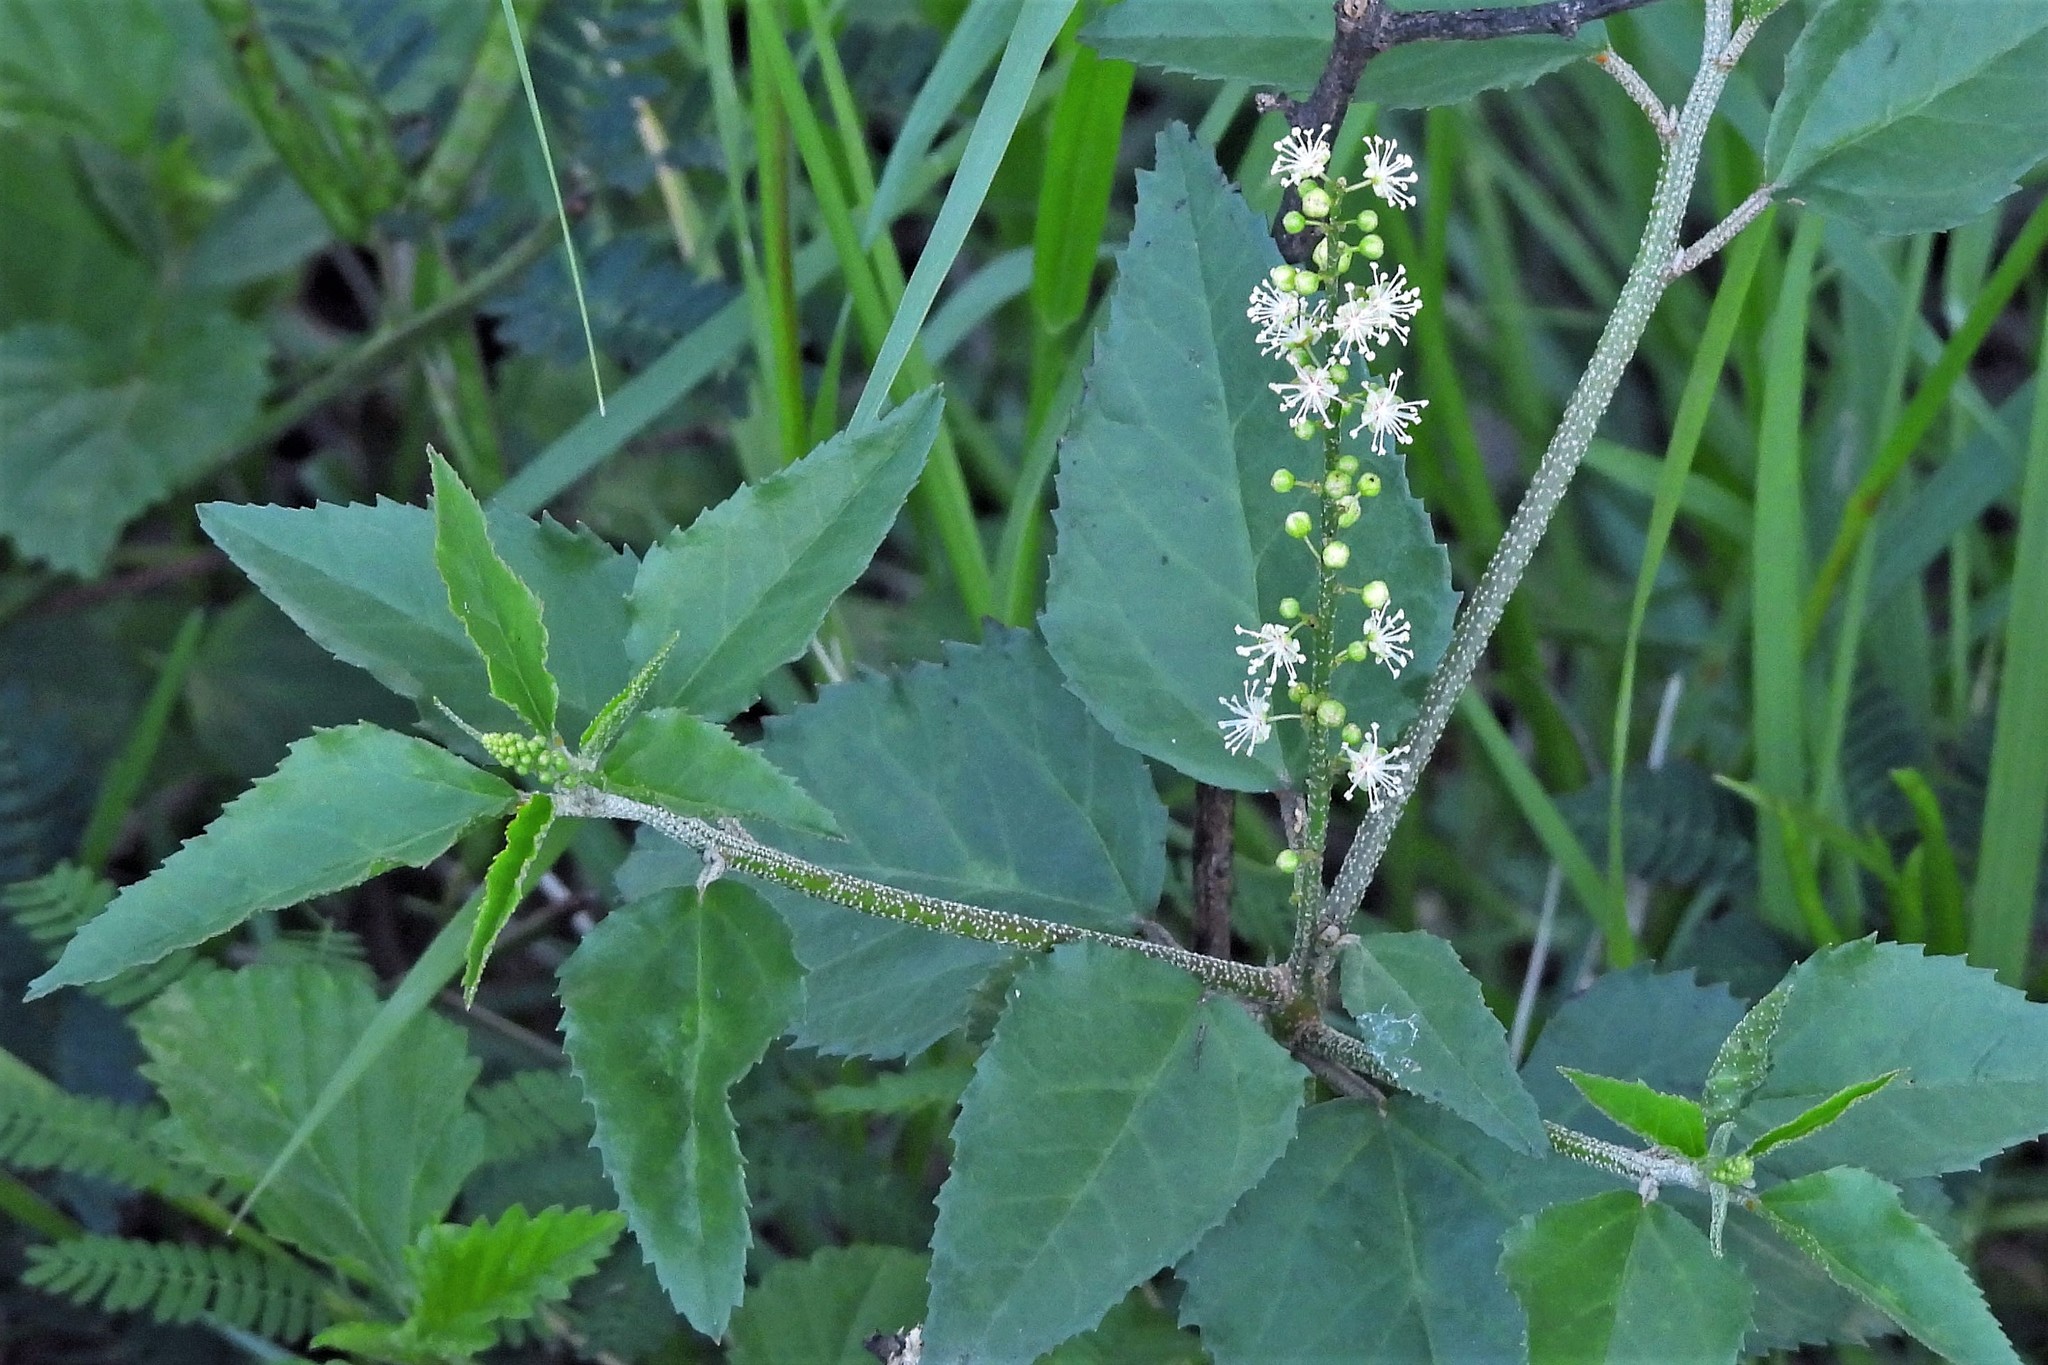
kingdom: Plantae
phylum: Tracheophyta
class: Magnoliopsida
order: Malpighiales
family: Euphorbiaceae
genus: Croton
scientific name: Croton bonplandianus
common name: Bonpland's croton
